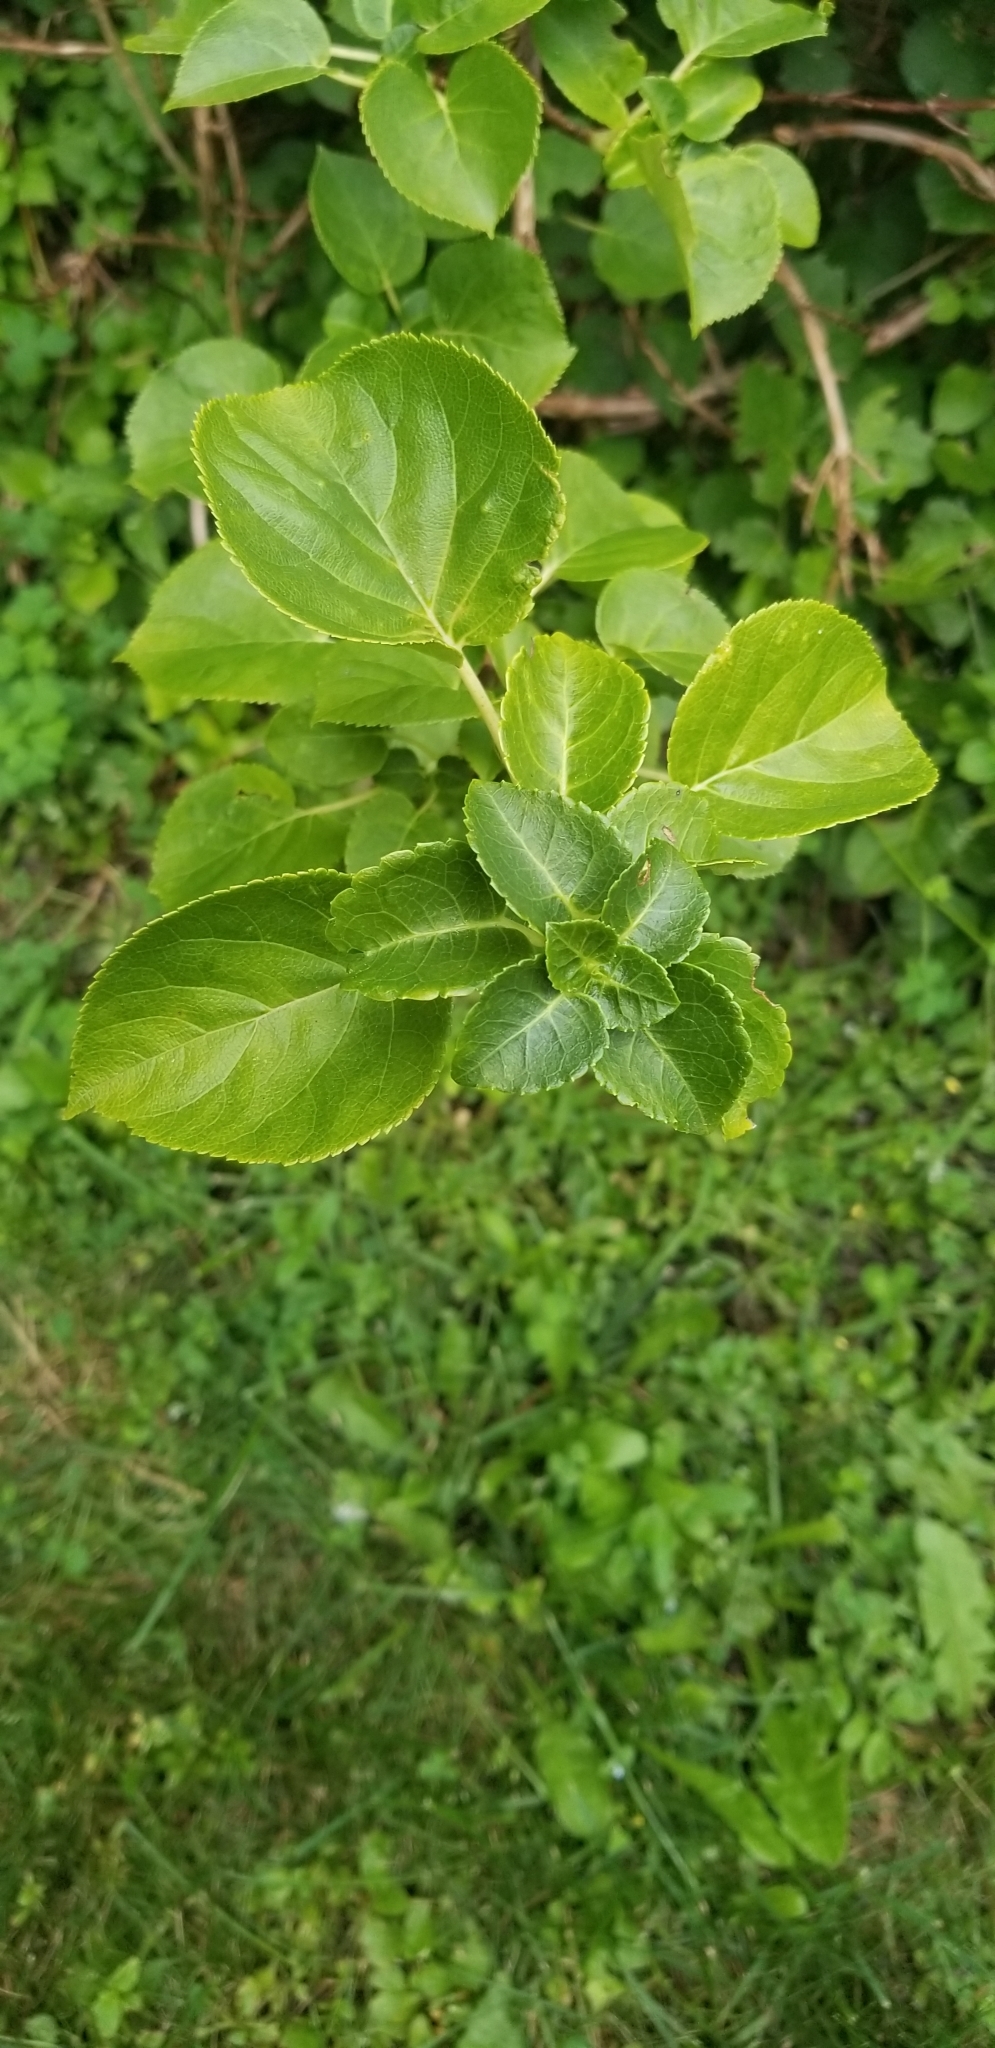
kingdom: Plantae
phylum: Tracheophyta
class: Magnoliopsida
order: Celastrales
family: Celastraceae
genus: Celastrus
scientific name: Celastrus orbiculatus
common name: Oriental bittersweet
